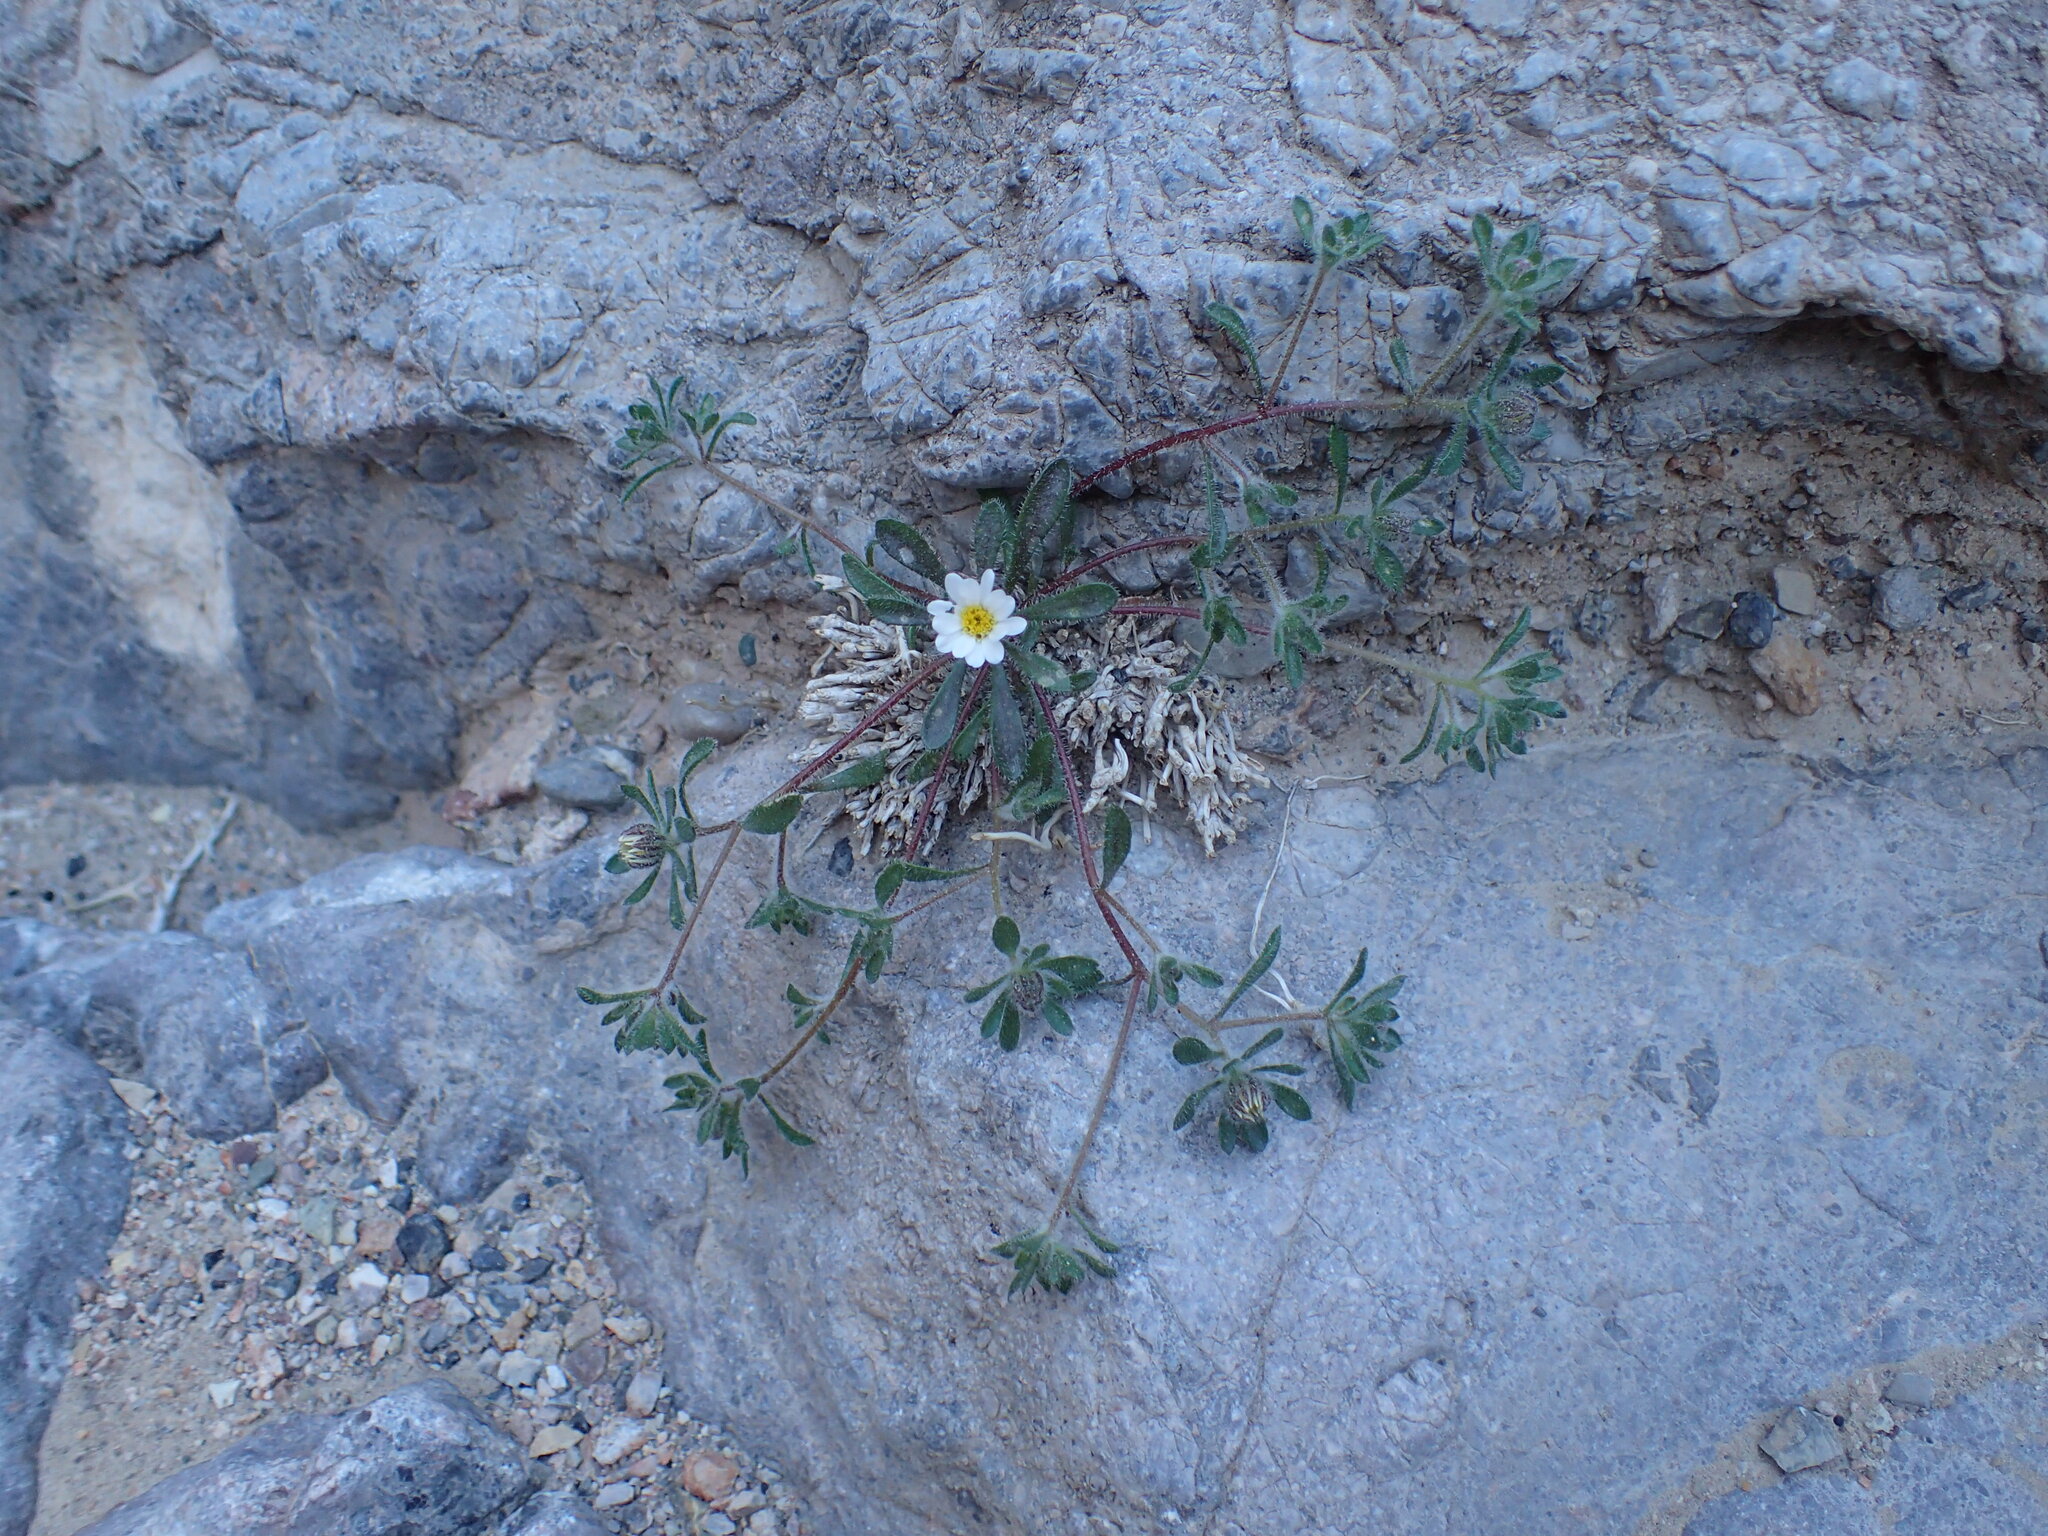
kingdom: Plantae
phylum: Tracheophyta
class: Magnoliopsida
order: Asterales
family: Asteraceae
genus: Monoptilon
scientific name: Monoptilon bellioides
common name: Bristly desertstar
